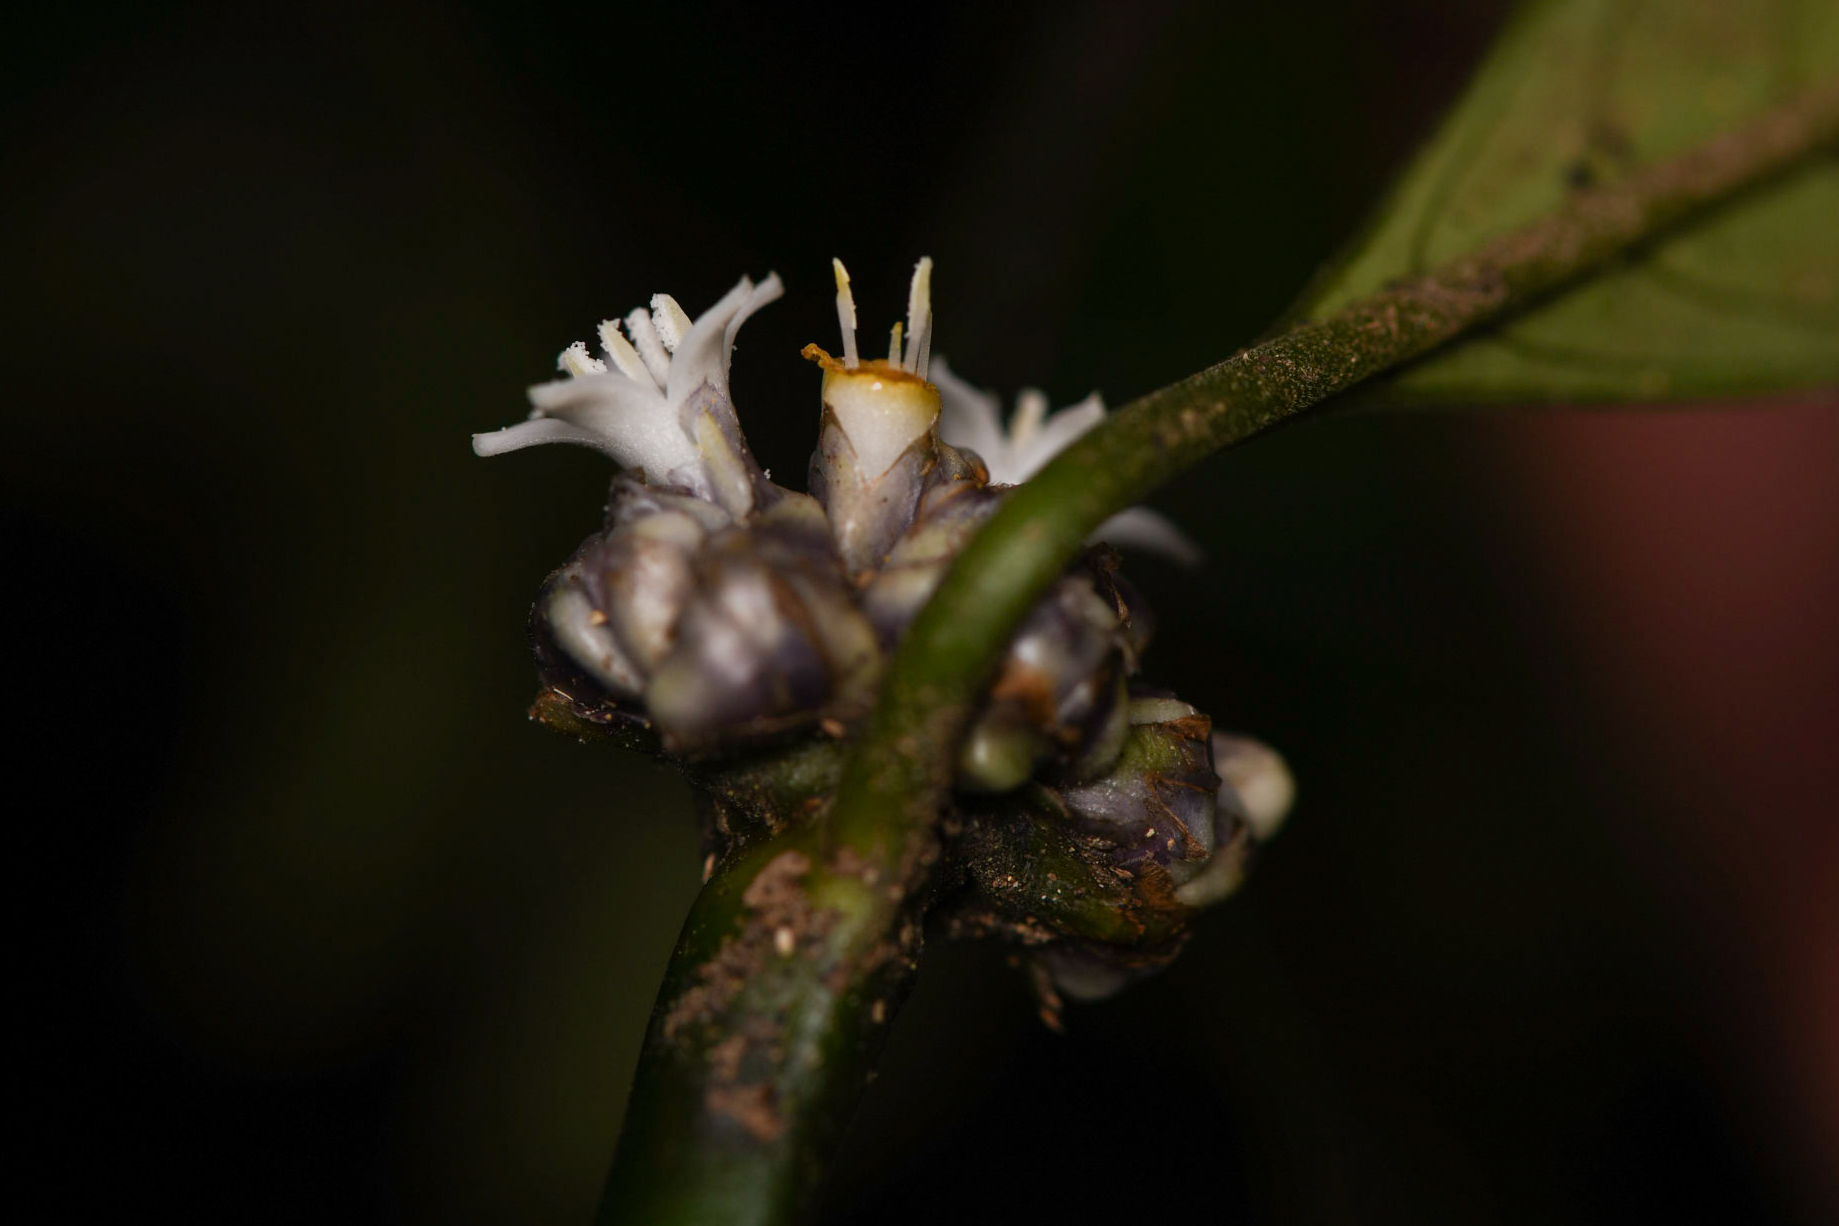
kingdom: Plantae
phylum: Tracheophyta
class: Magnoliopsida
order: Gentianales
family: Rubiaceae
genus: Palicourea
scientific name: Palicourea axillaris
